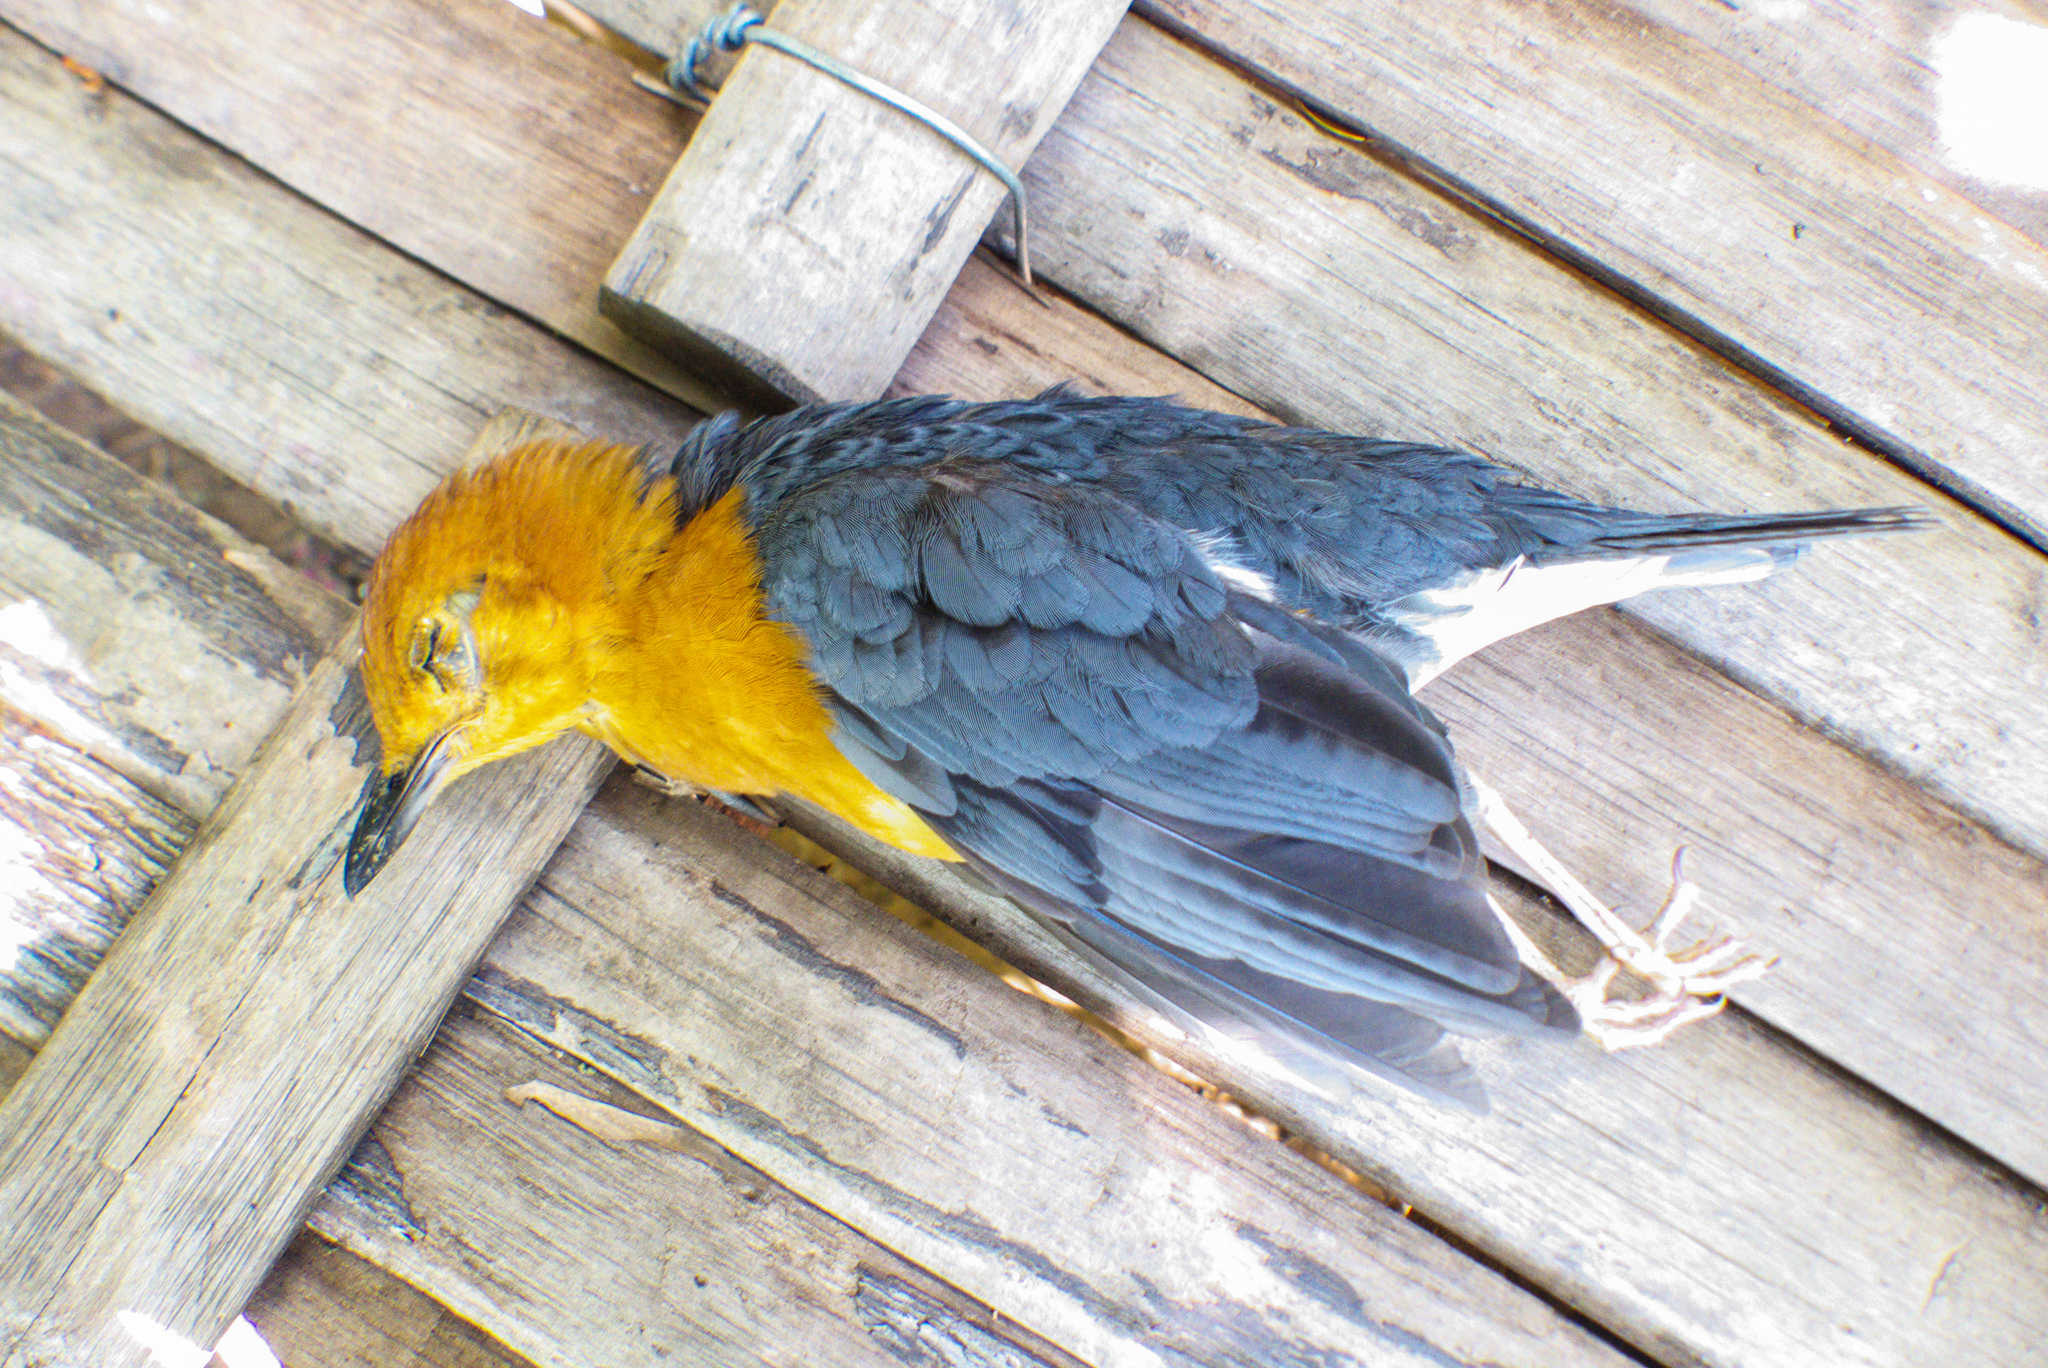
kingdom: Animalia
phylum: Chordata
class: Aves
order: Passeriformes
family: Turdidae
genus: Geokichla
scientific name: Geokichla citrina
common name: Orange-headed thrush
